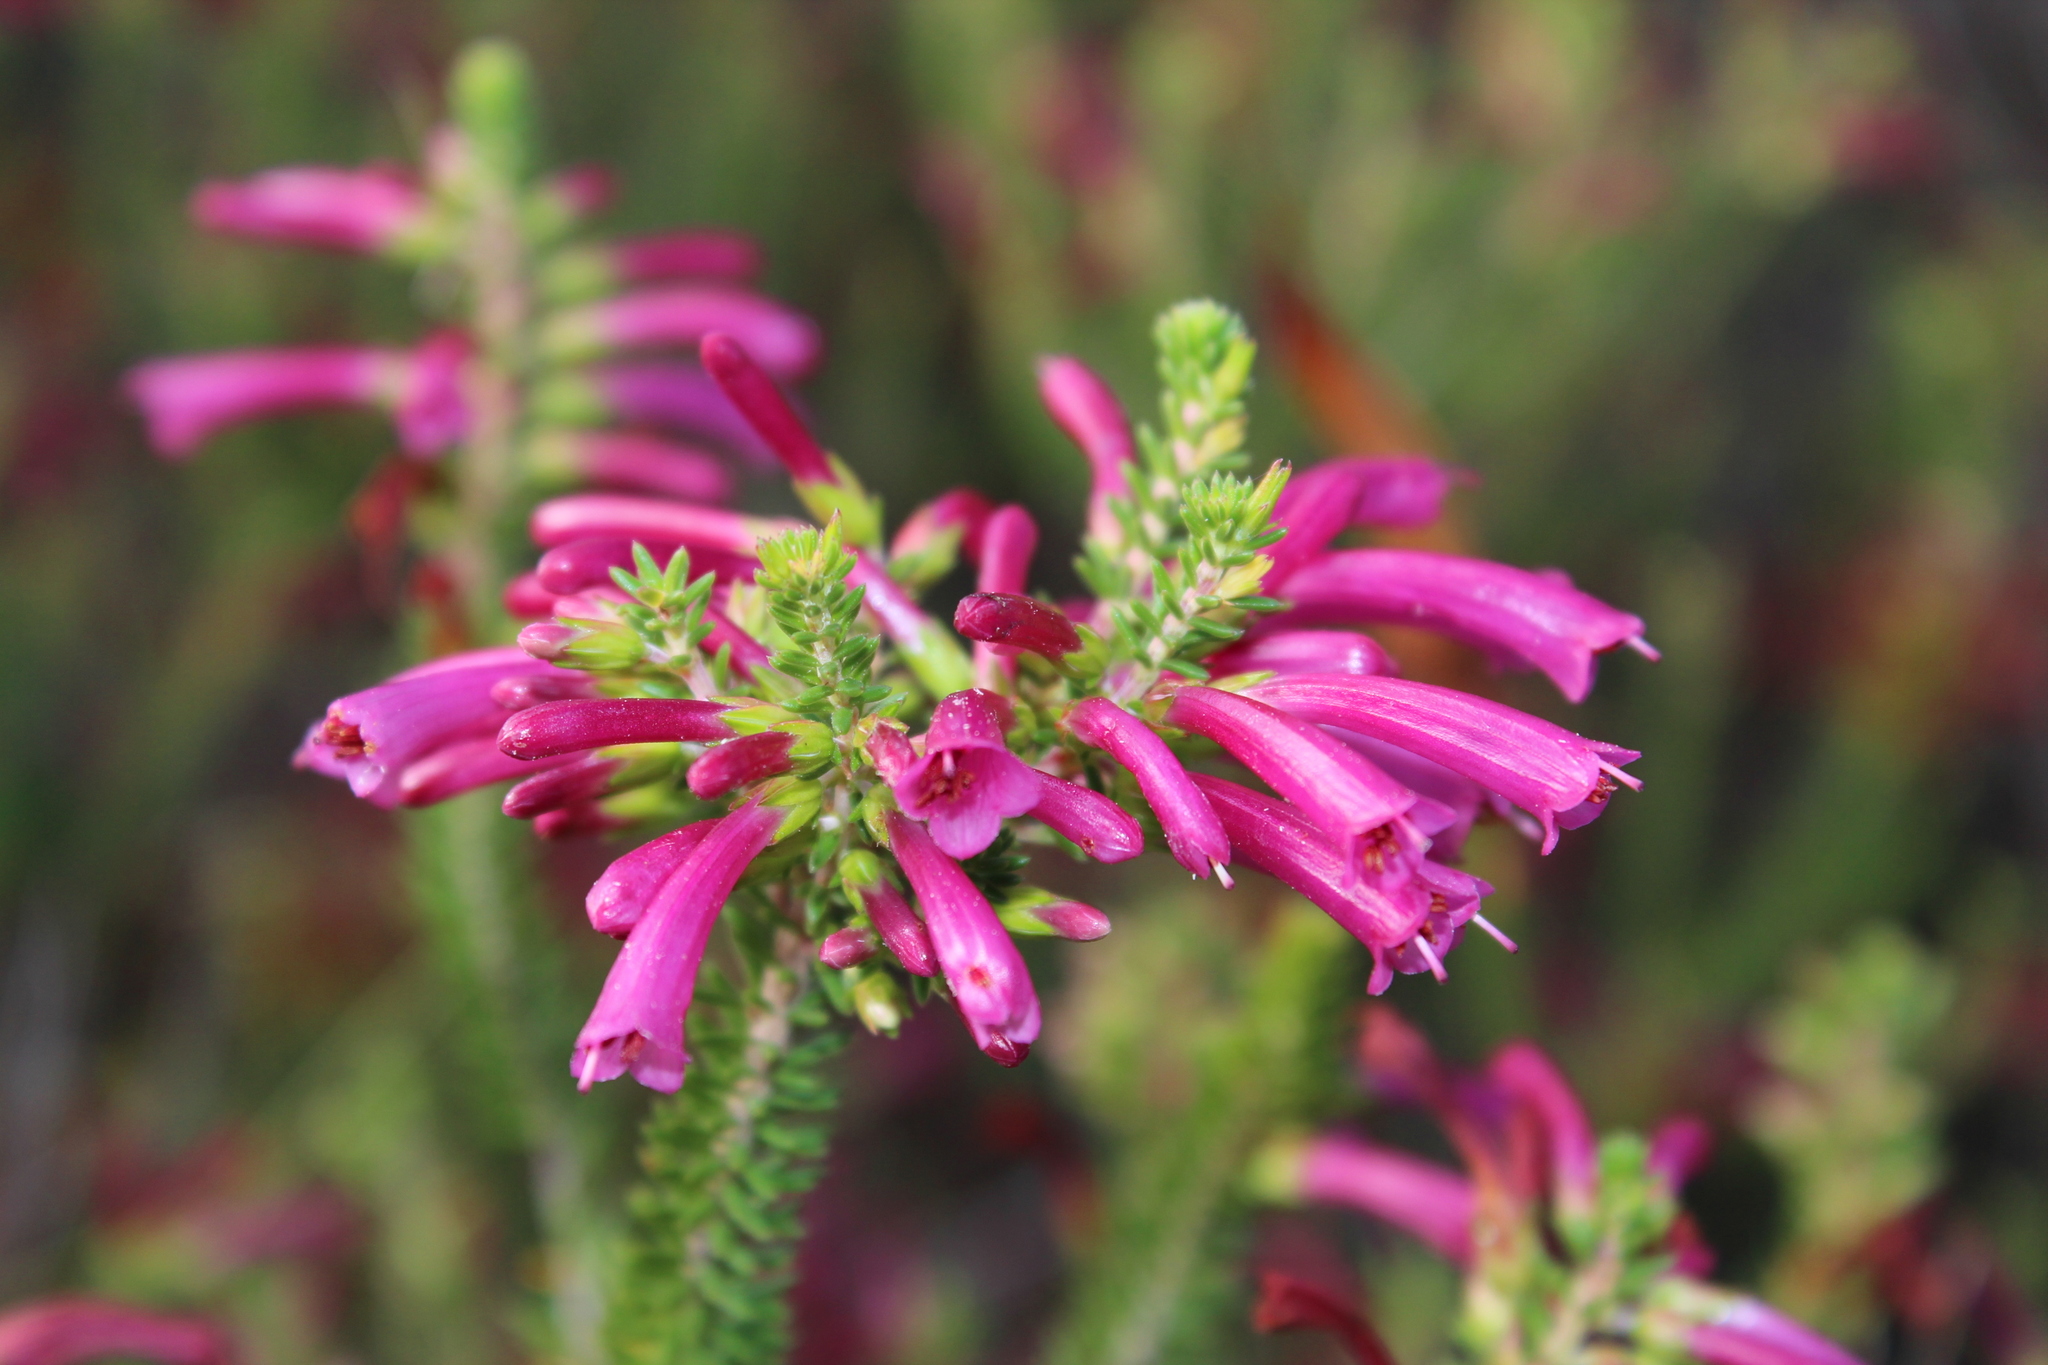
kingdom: Plantae
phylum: Tracheophyta
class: Magnoliopsida
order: Ericales
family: Ericaceae
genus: Erica
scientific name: Erica abietina
